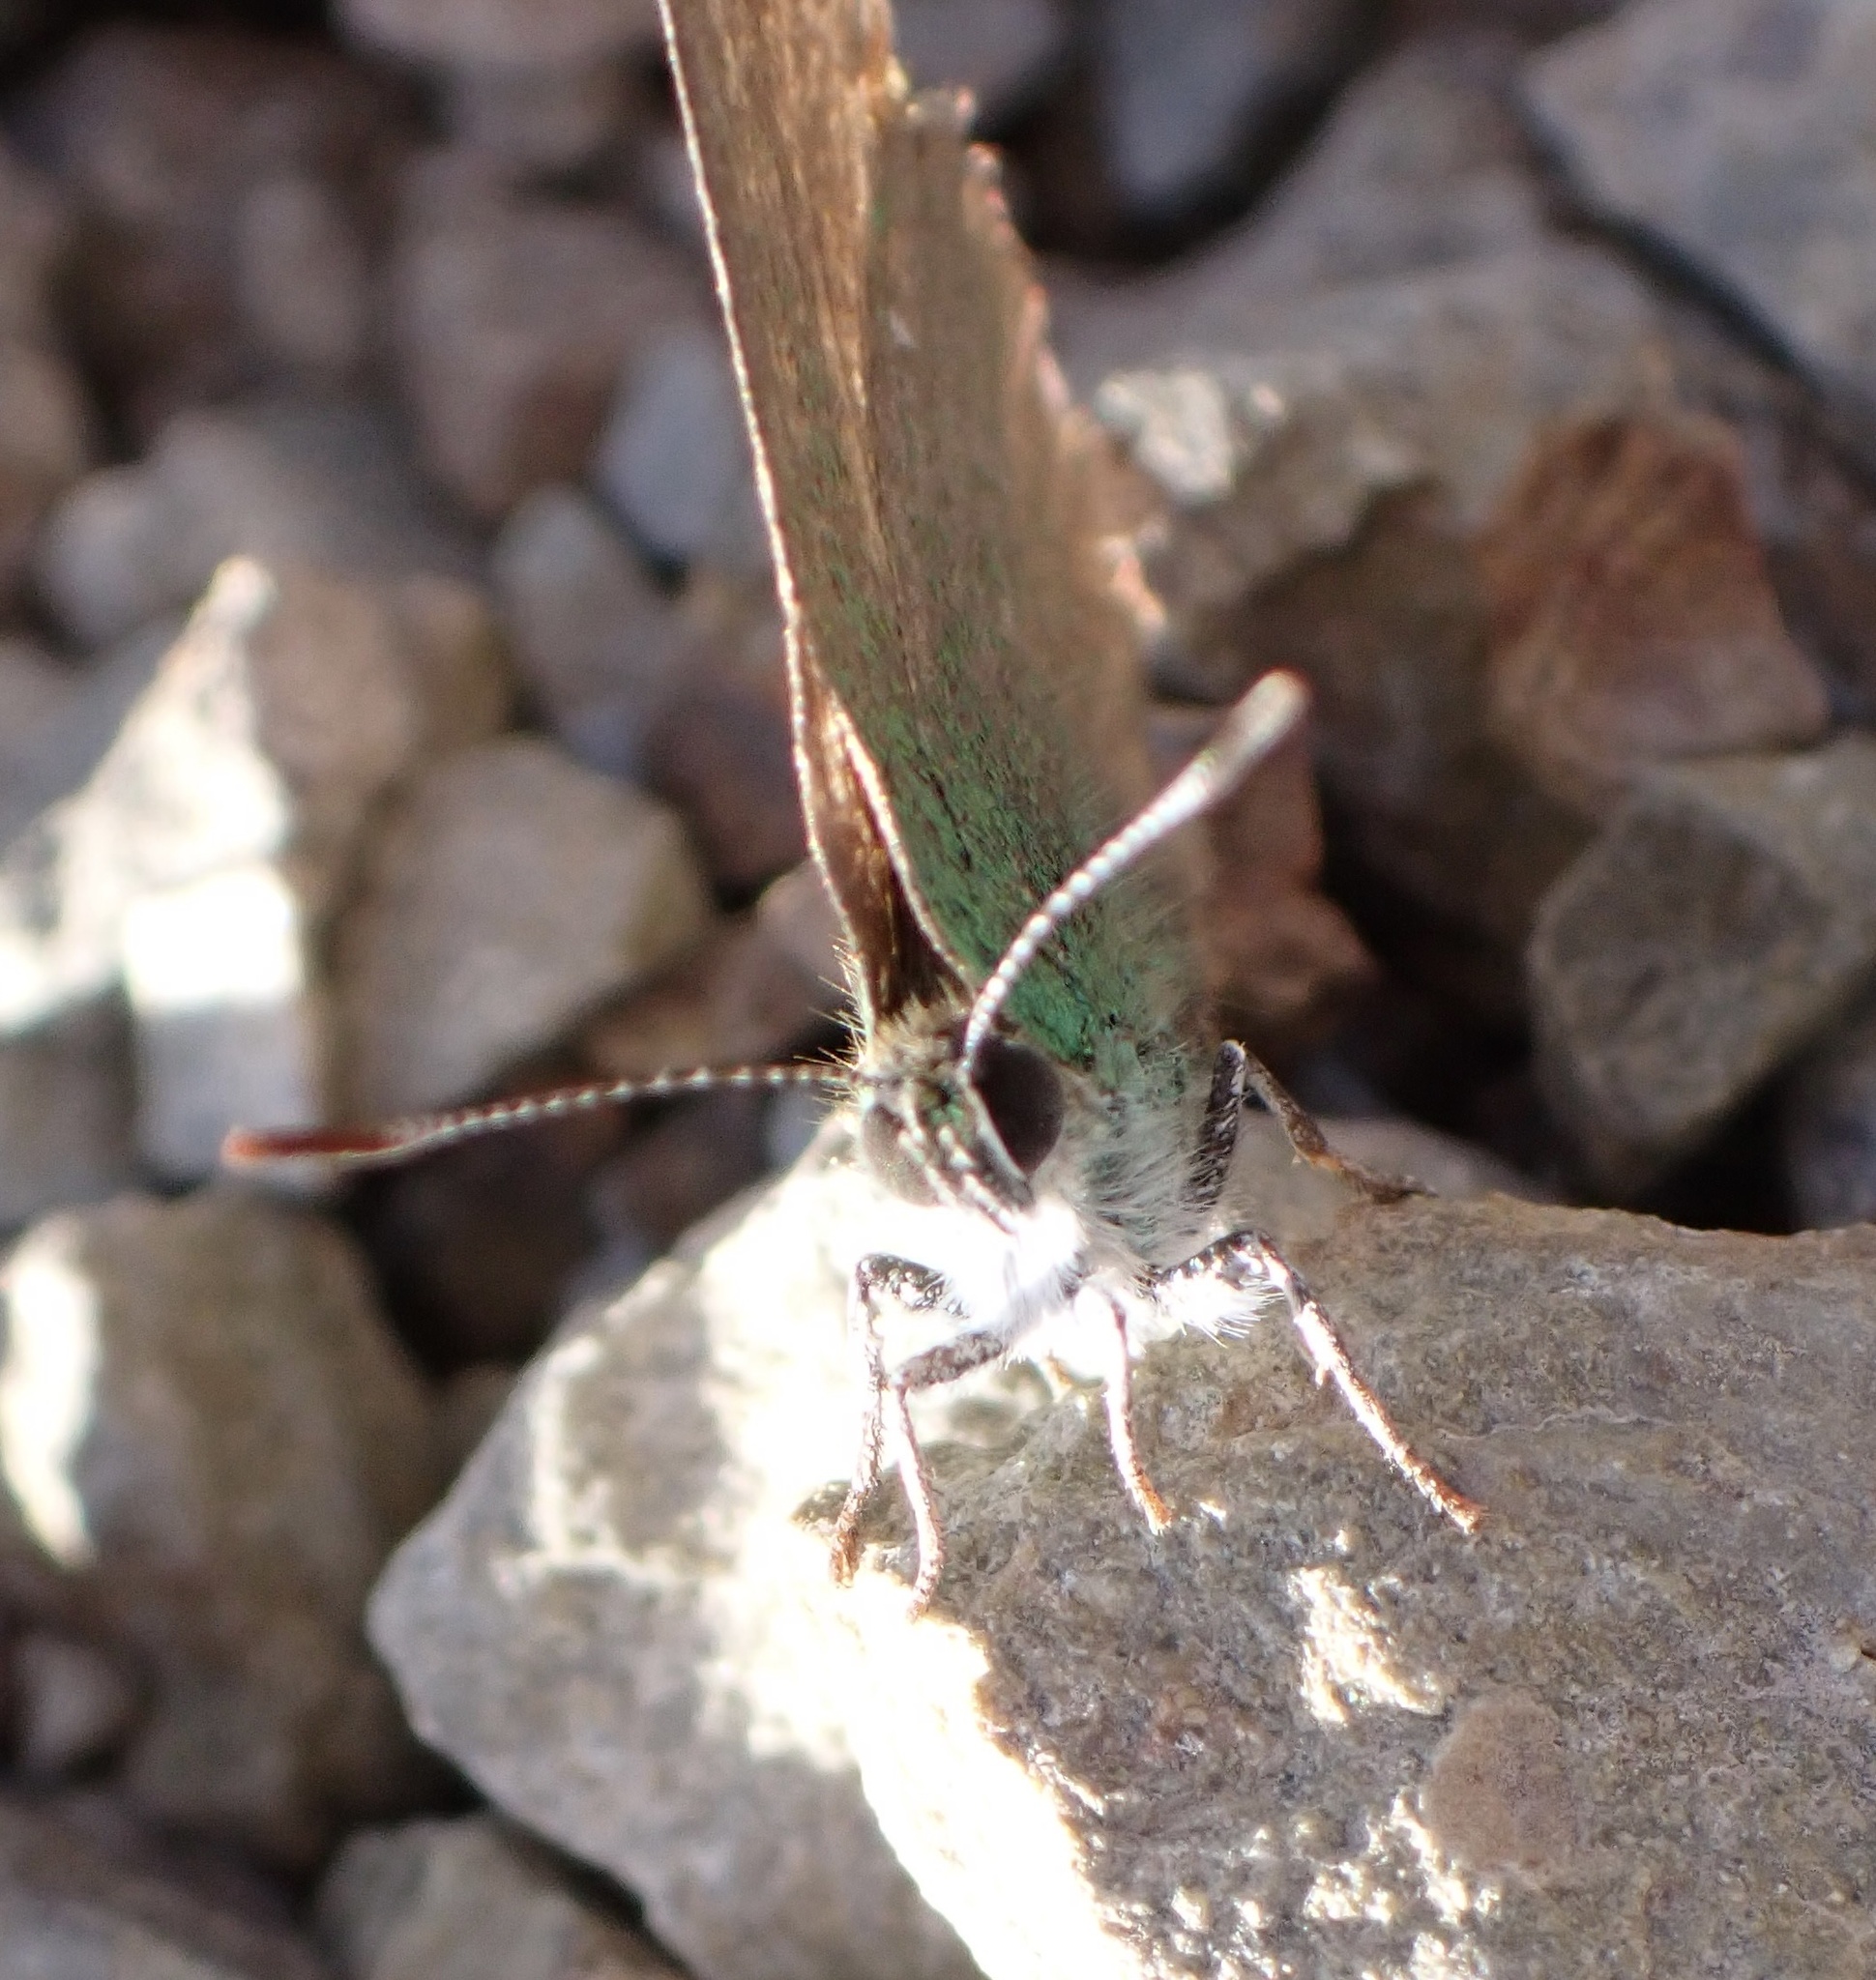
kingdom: Animalia
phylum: Arthropoda
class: Insecta
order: Lepidoptera
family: Lycaenidae
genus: Callophrys
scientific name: Callophrys rubi
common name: Green hairstreak
